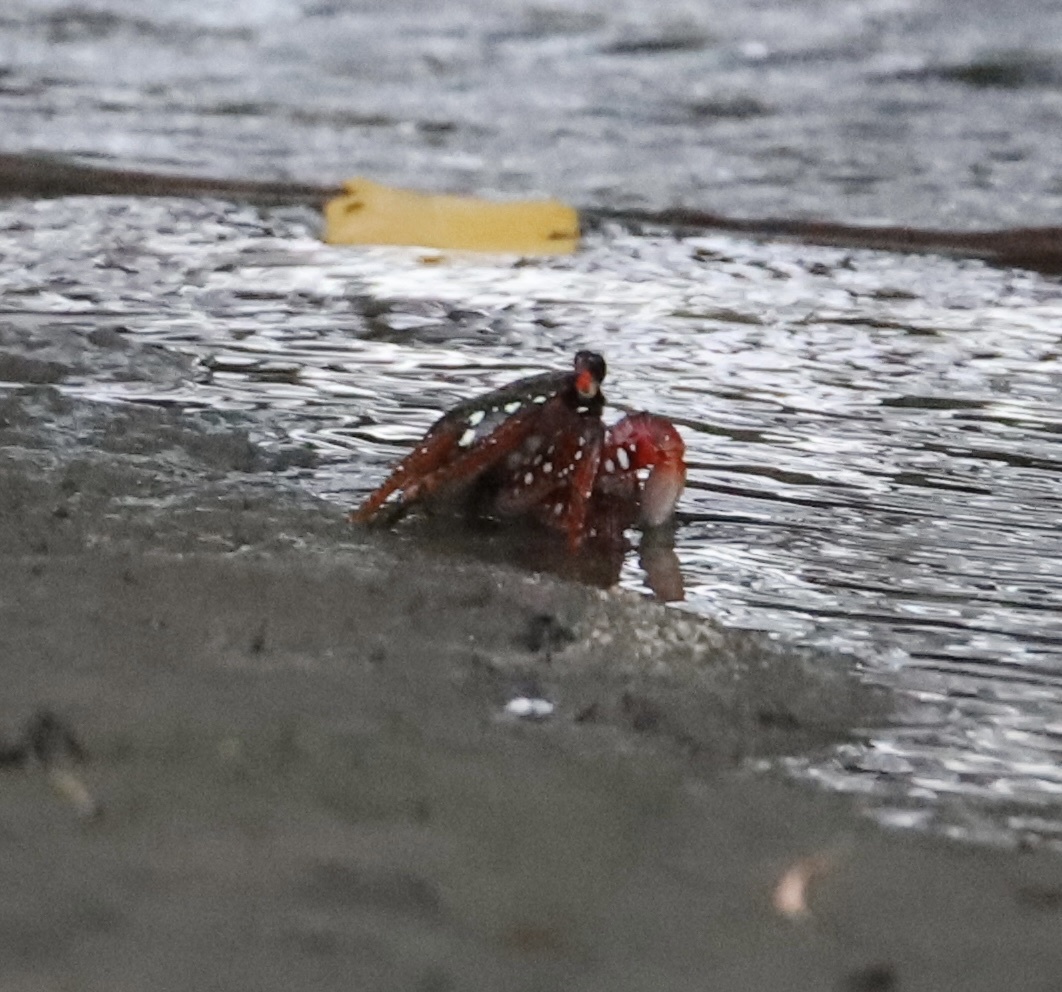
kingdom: Animalia
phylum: Arthropoda
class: Malacostraca
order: Decapoda
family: Grapsidae
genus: Grapsus
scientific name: Grapsus grapsus
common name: Sally lightfoot
